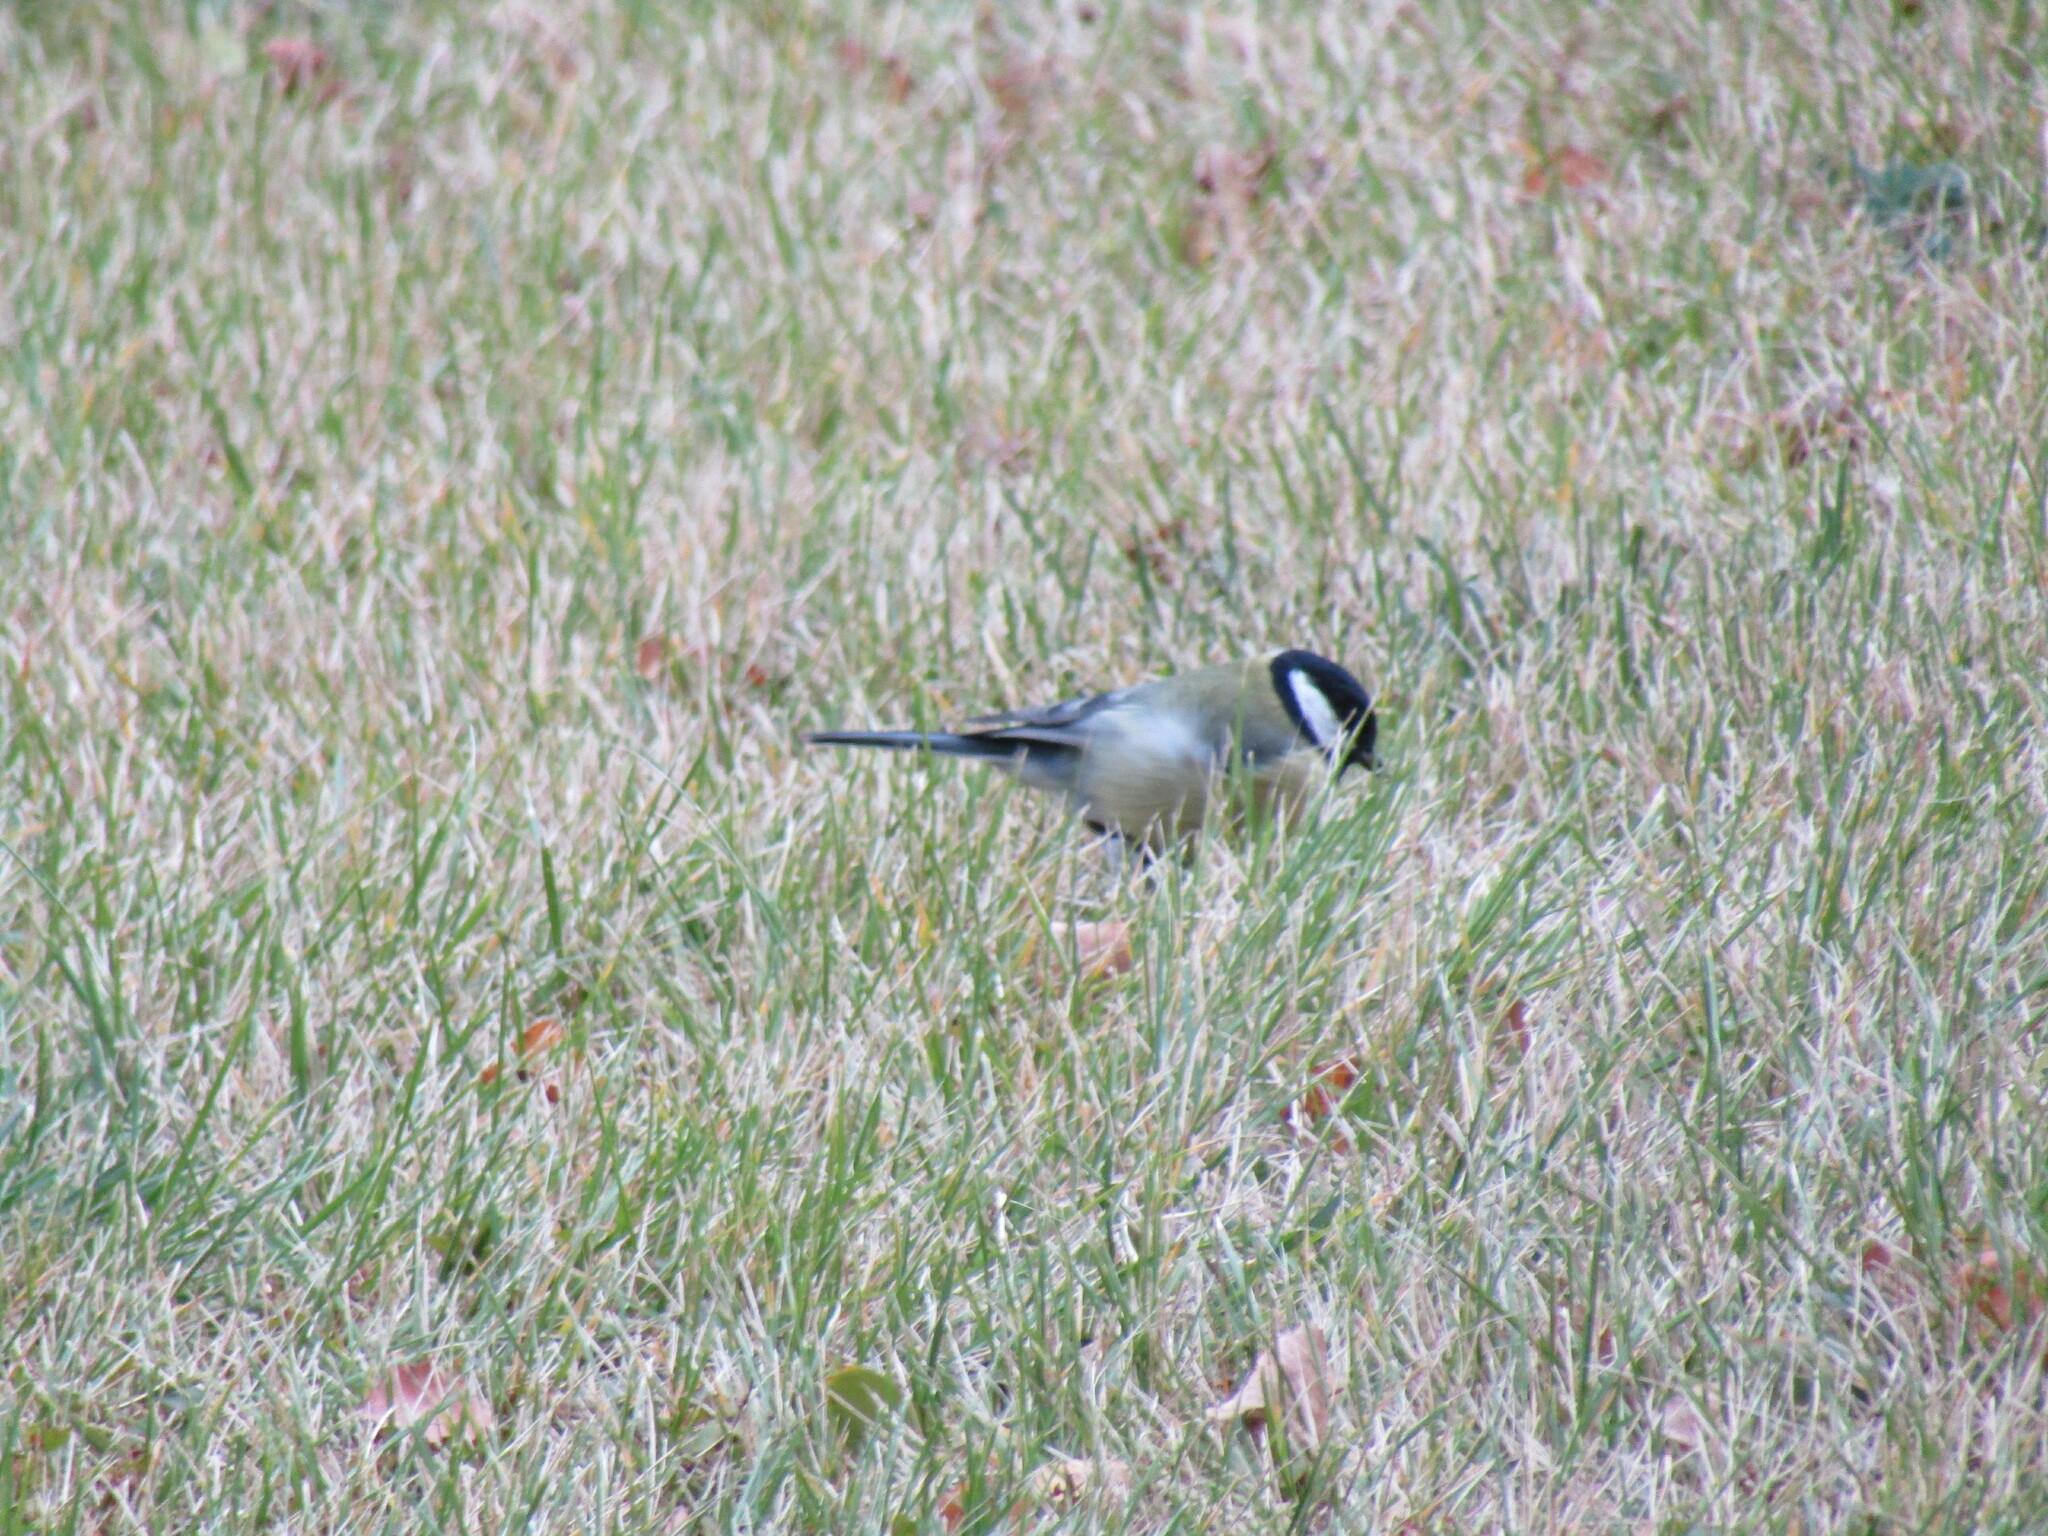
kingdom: Animalia
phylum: Chordata
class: Aves
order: Passeriformes
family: Paridae
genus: Parus
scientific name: Parus major
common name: Great tit
